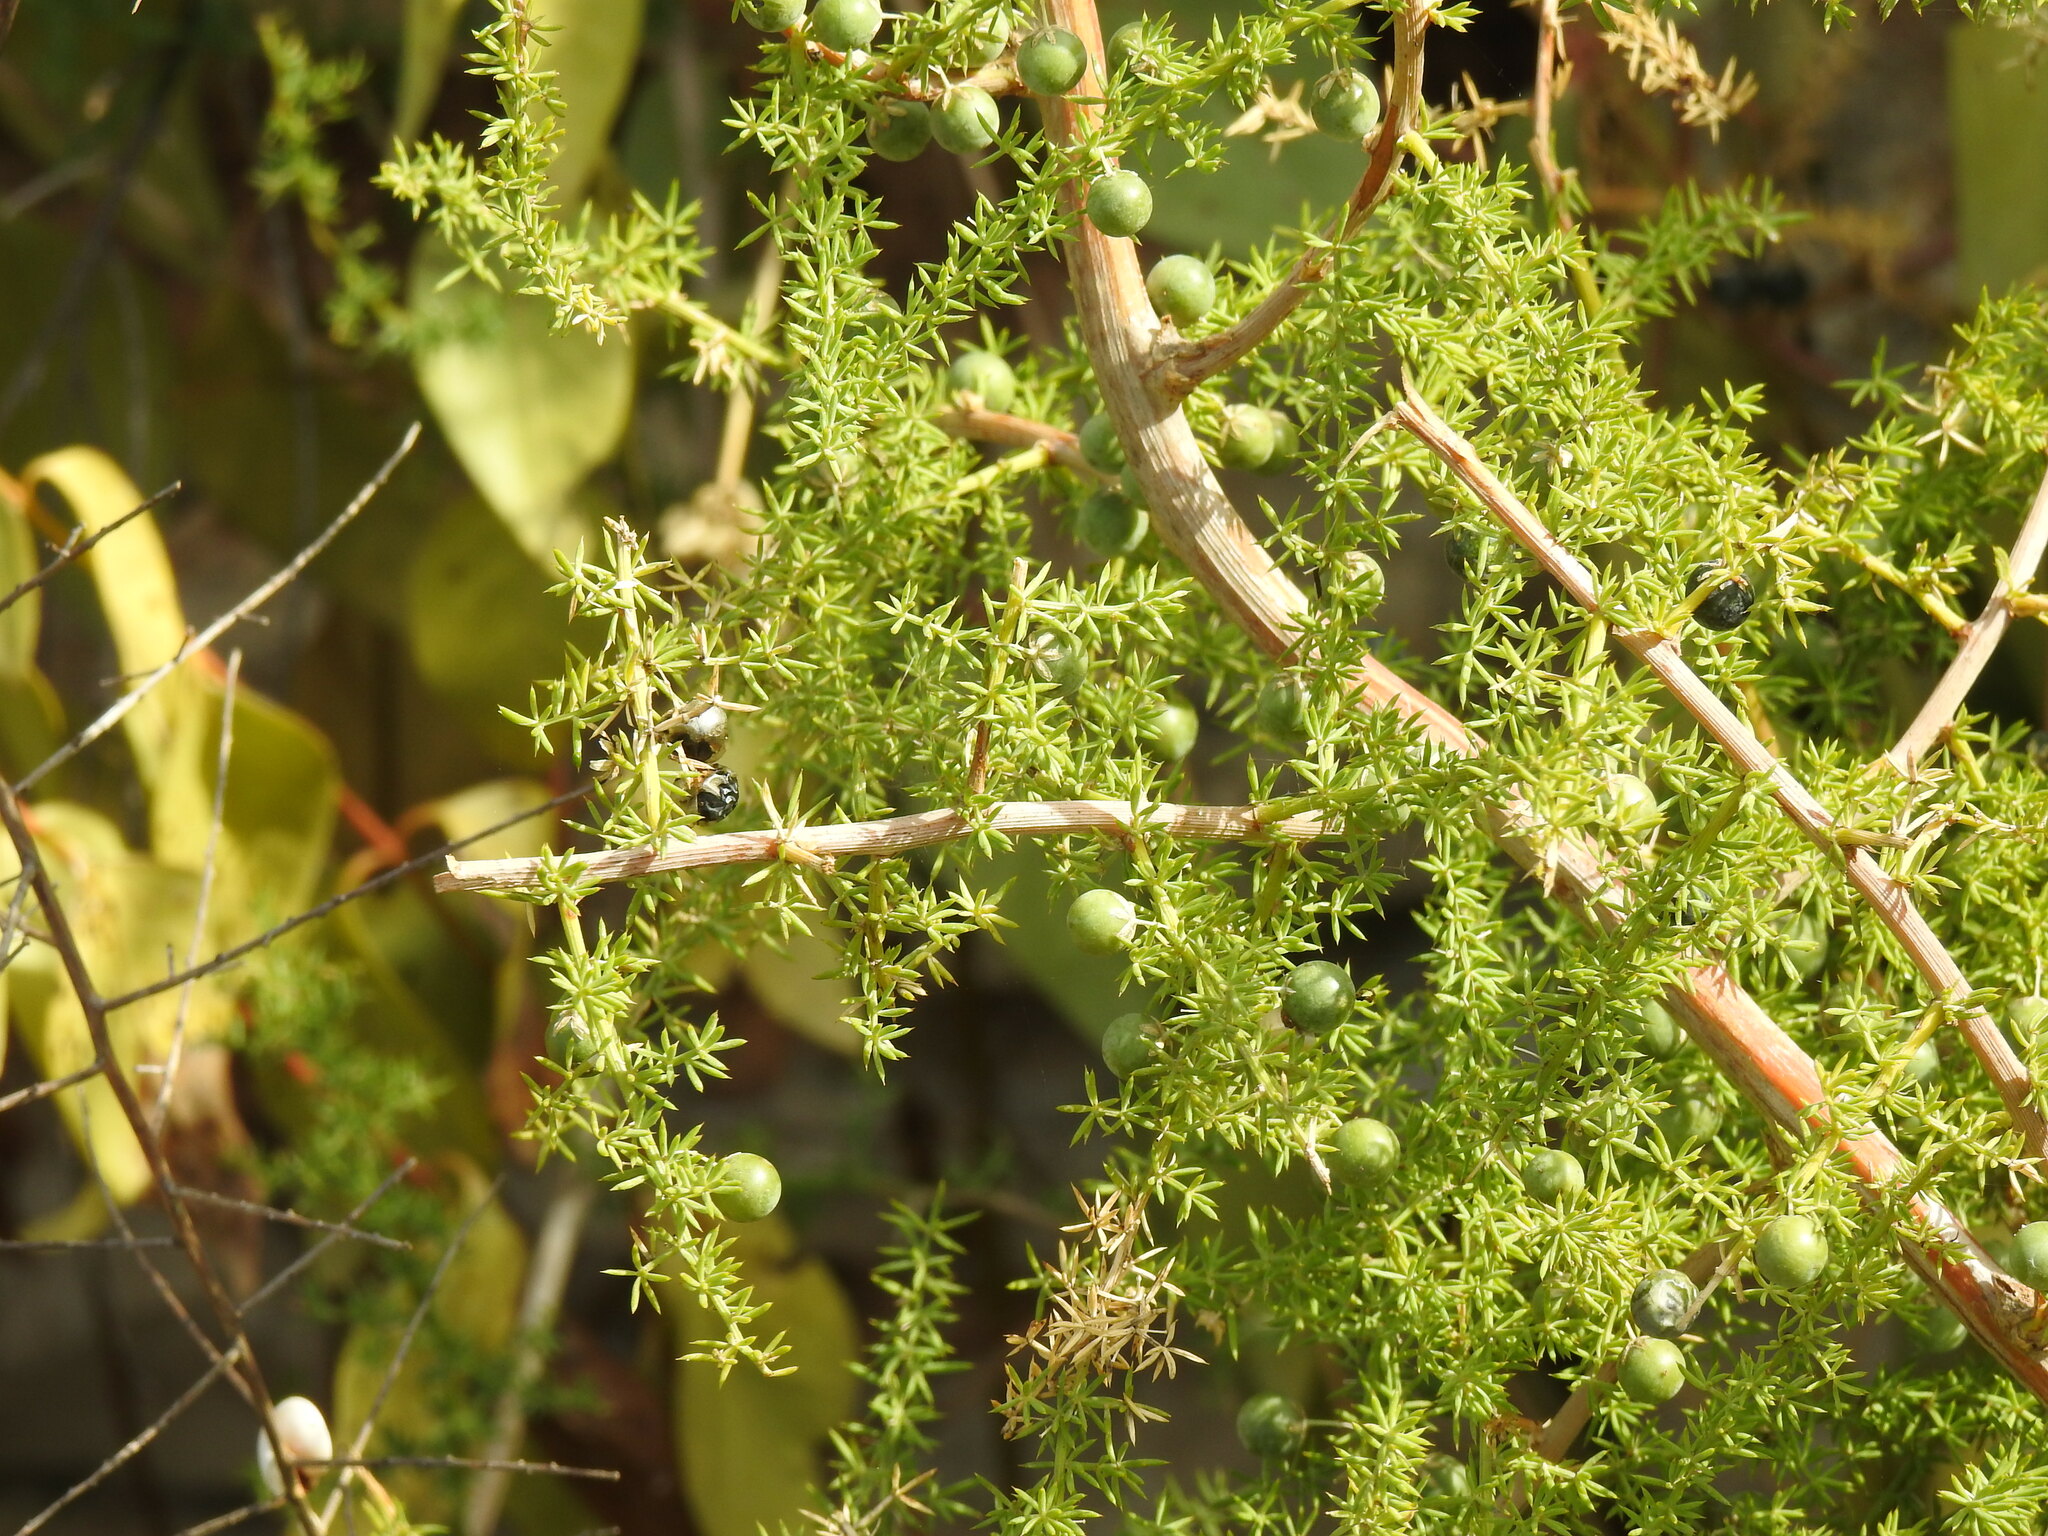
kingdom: Plantae
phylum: Tracheophyta
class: Liliopsida
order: Asparagales
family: Asparagaceae
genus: Asparagus
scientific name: Asparagus acutifolius
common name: Wild asparagus
